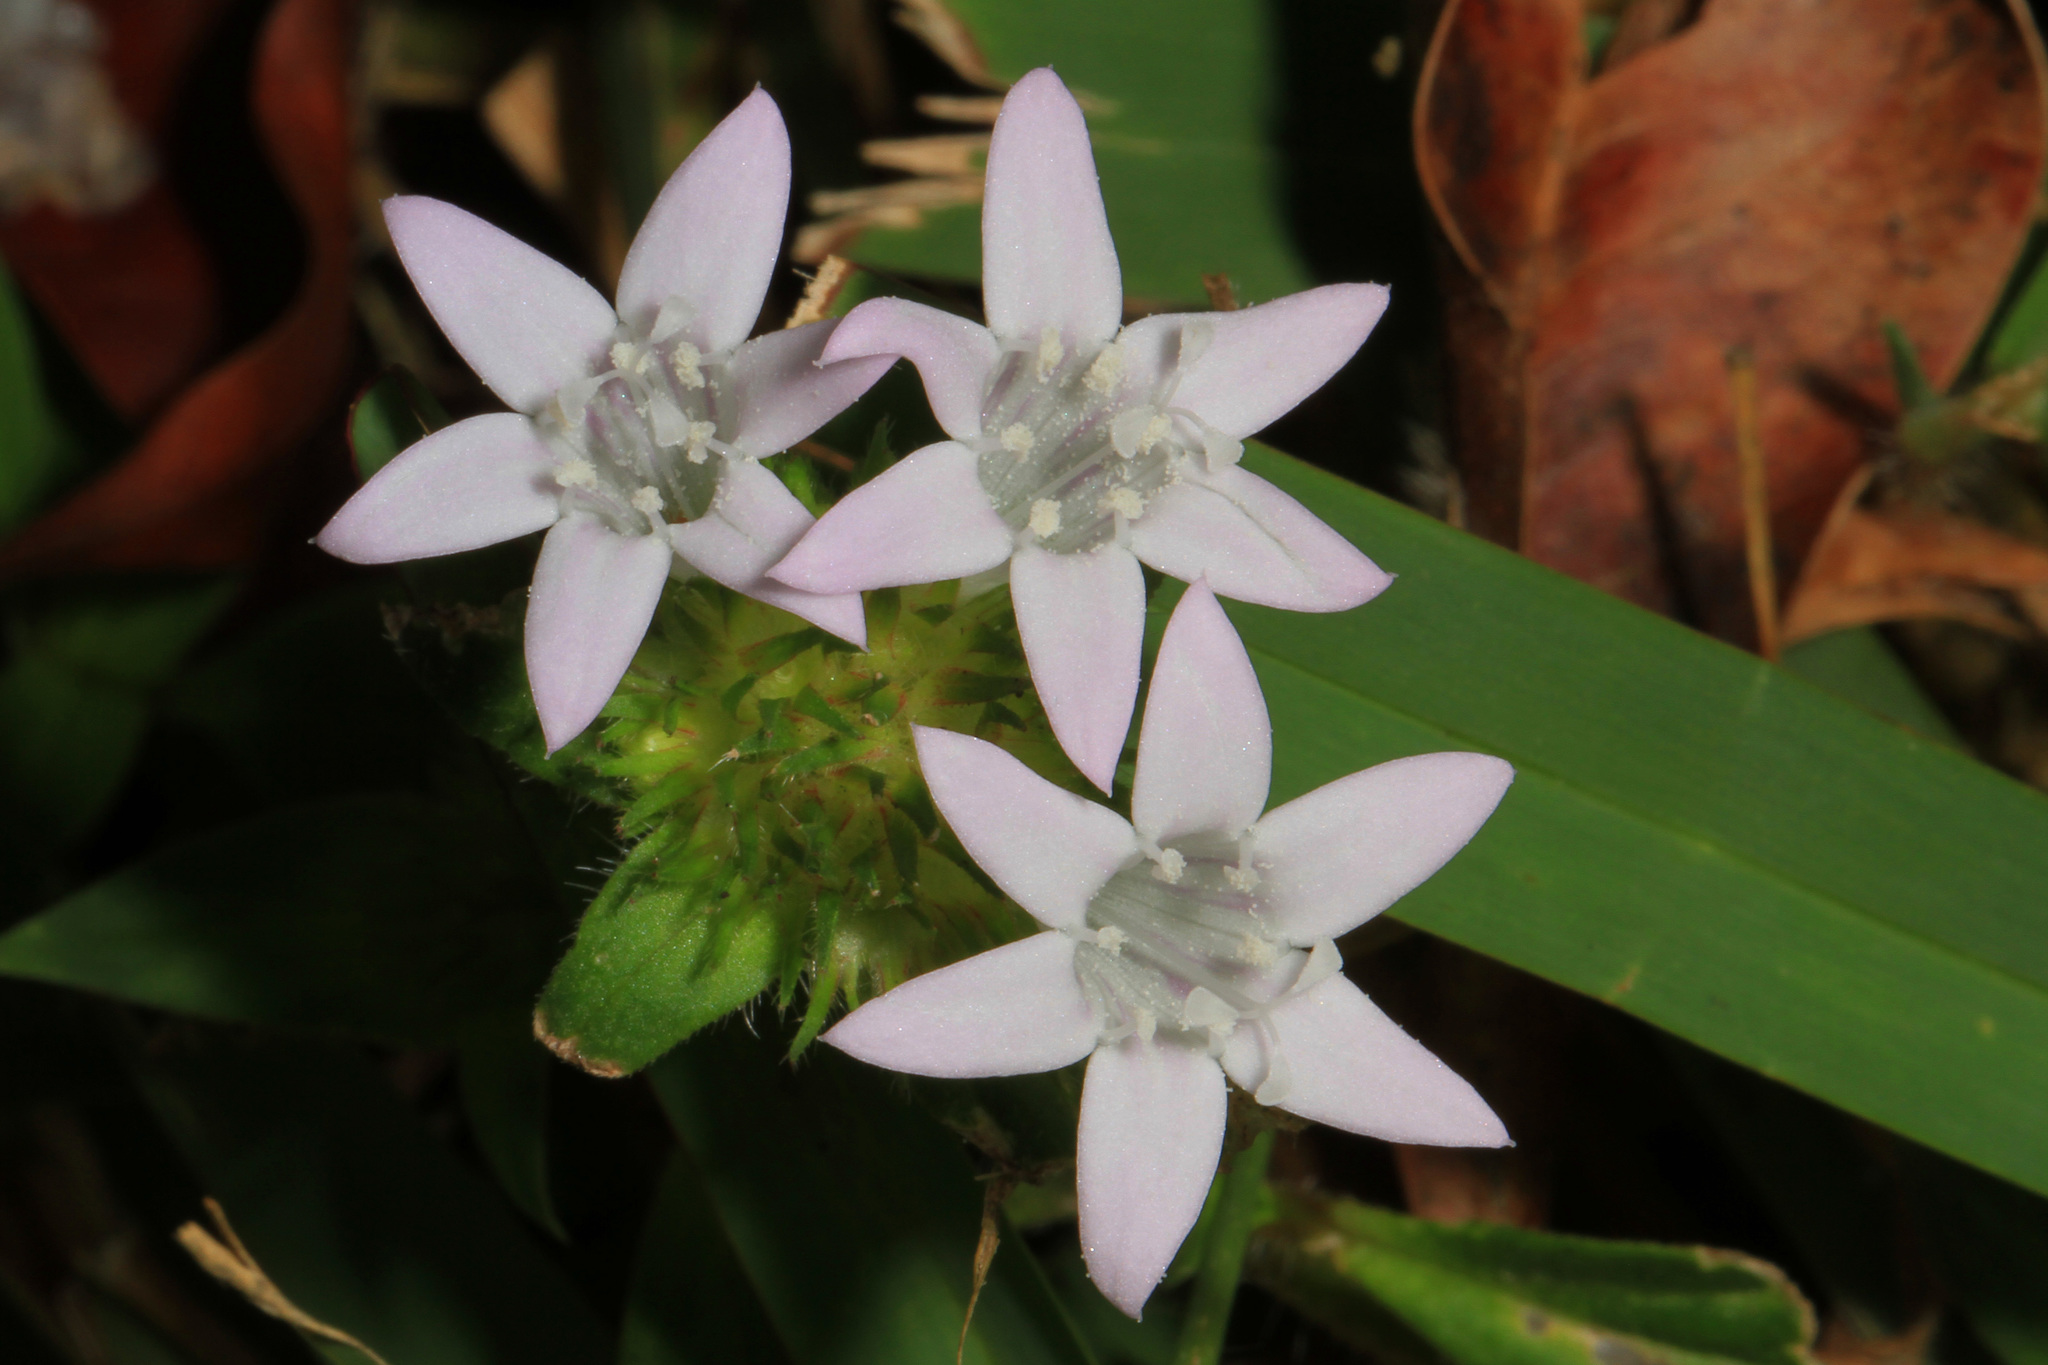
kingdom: Plantae
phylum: Tracheophyta
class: Magnoliopsida
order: Gentianales
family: Rubiaceae
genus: Richardia
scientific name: Richardia grandiflora
